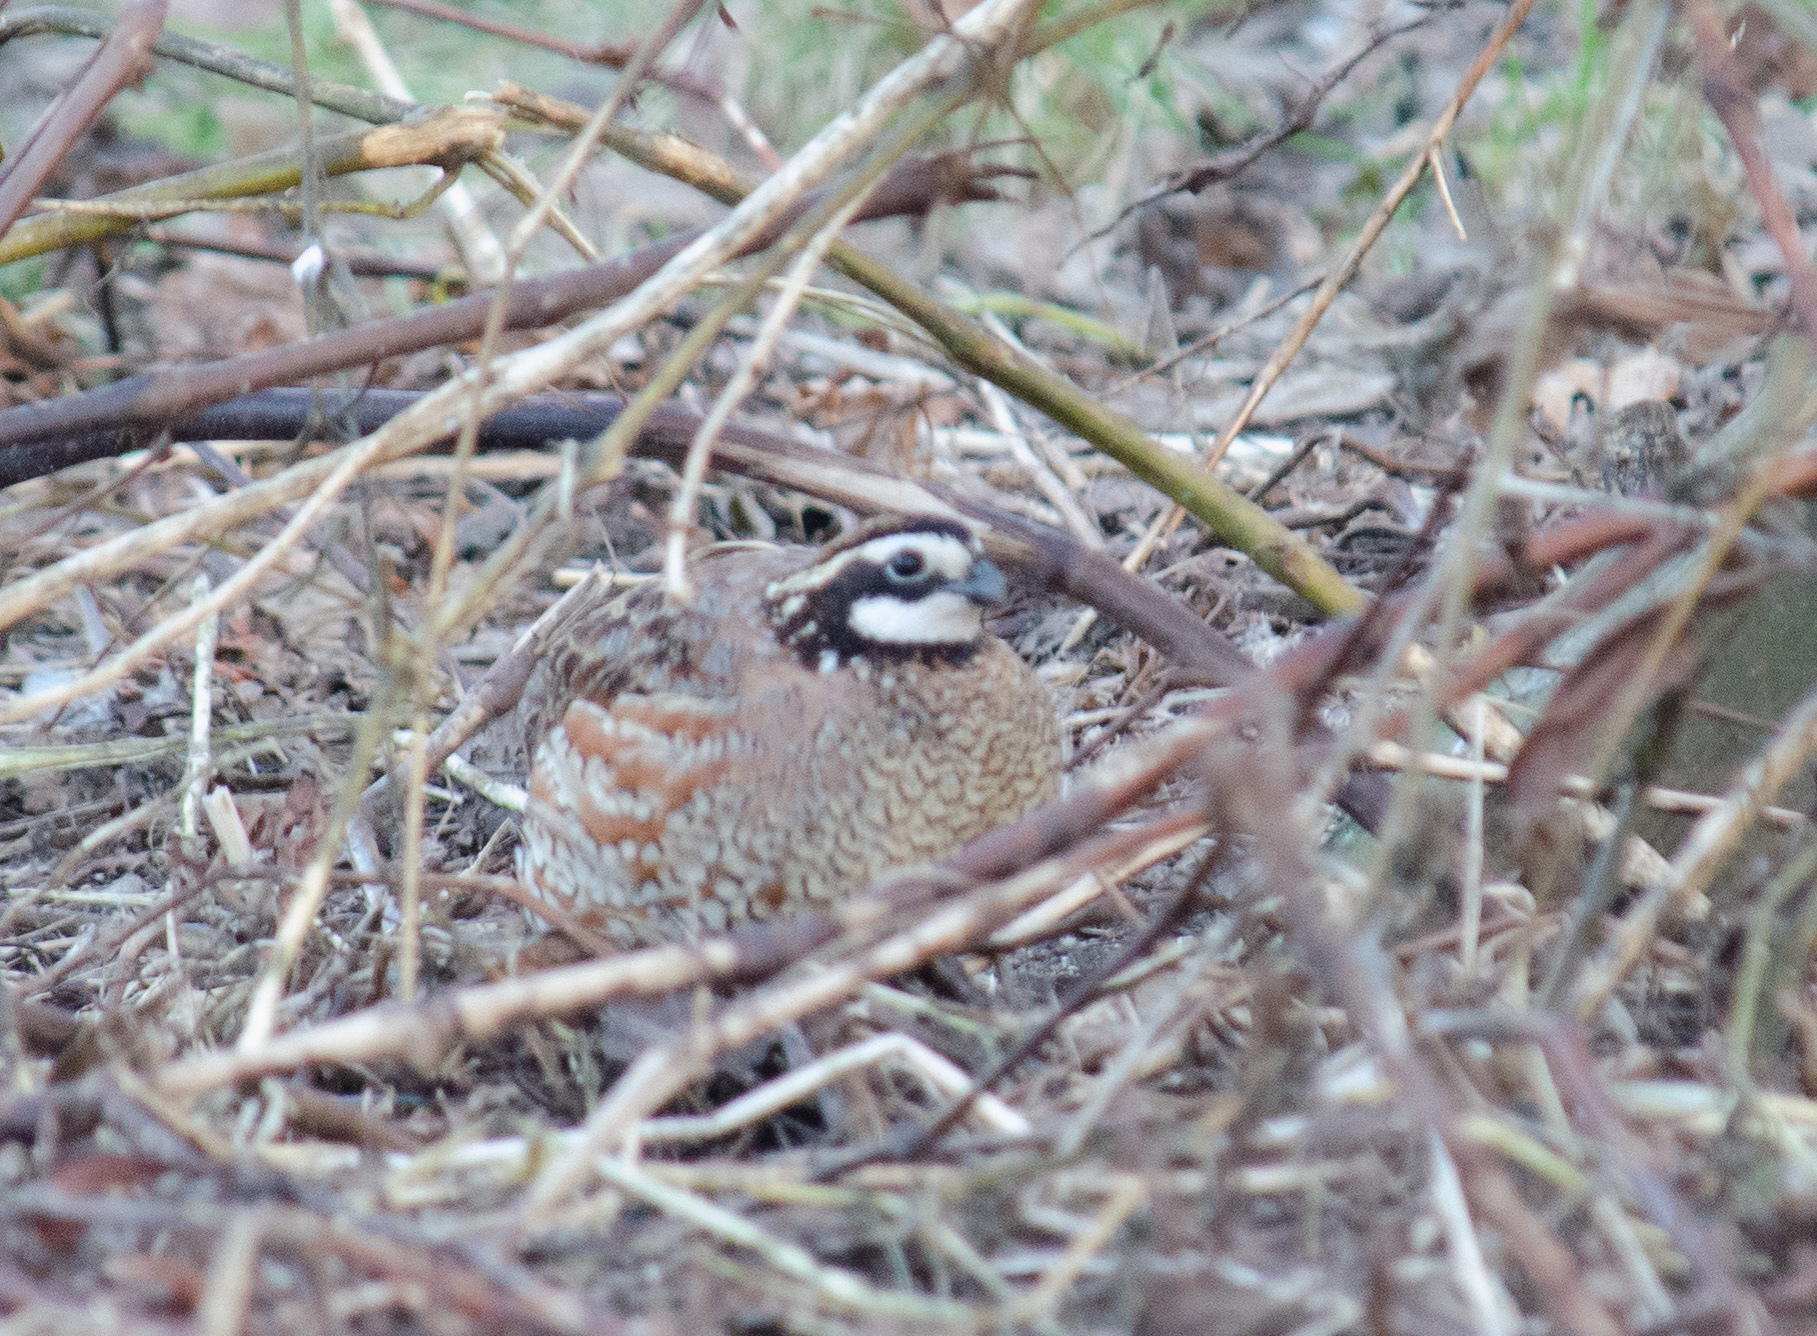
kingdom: Animalia
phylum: Chordata
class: Aves
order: Galliformes
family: Odontophoridae
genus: Colinus
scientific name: Colinus virginianus
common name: Northern bobwhite
